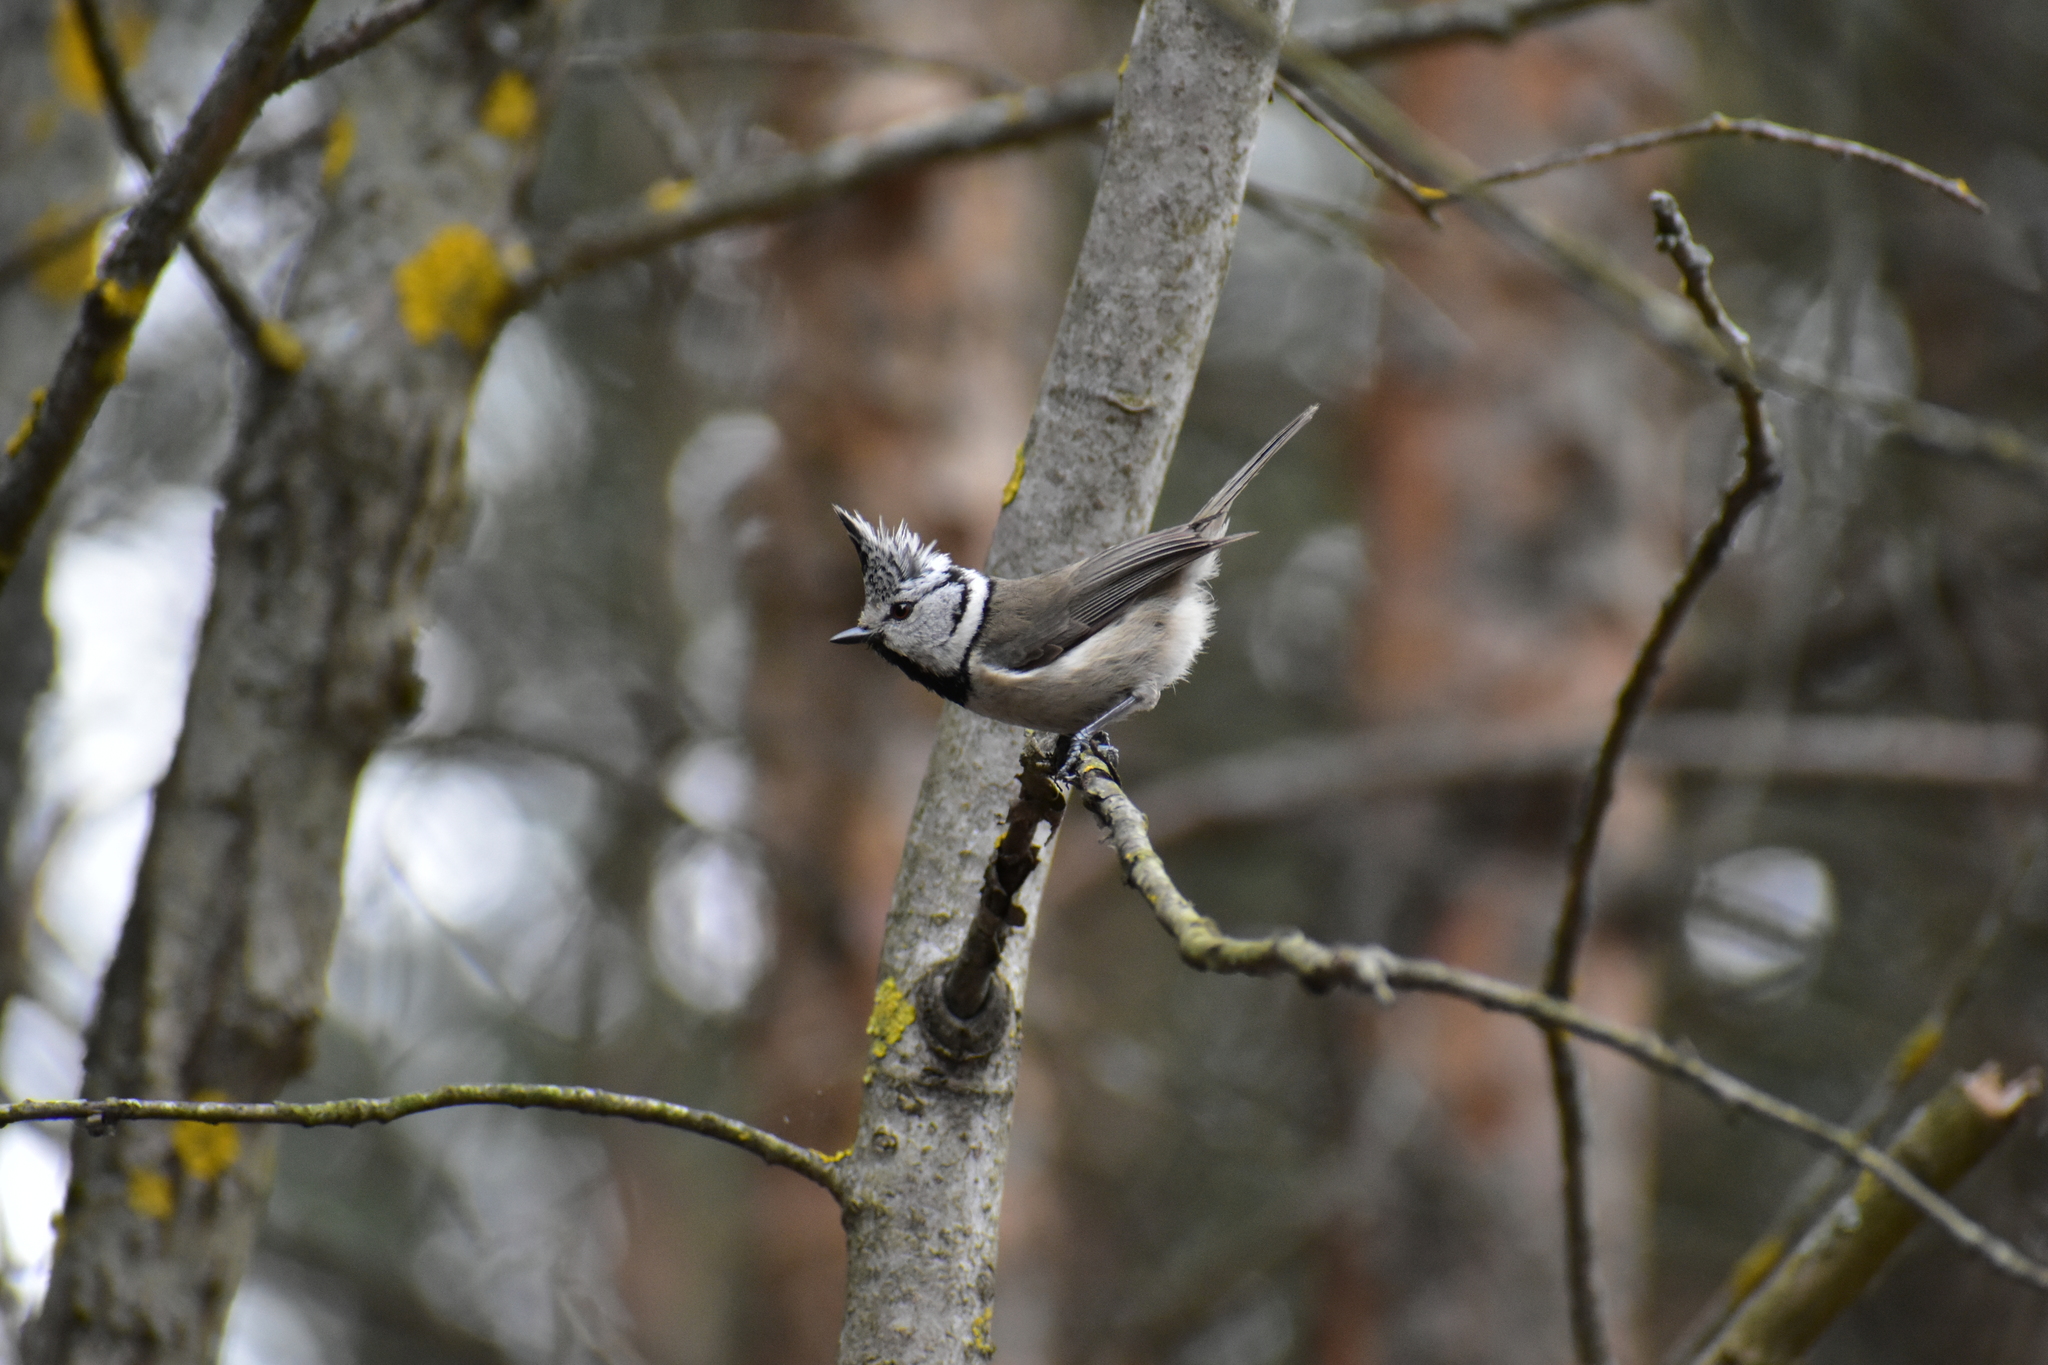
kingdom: Animalia
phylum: Chordata
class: Aves
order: Passeriformes
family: Paridae
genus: Lophophanes
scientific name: Lophophanes cristatus
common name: European crested tit
